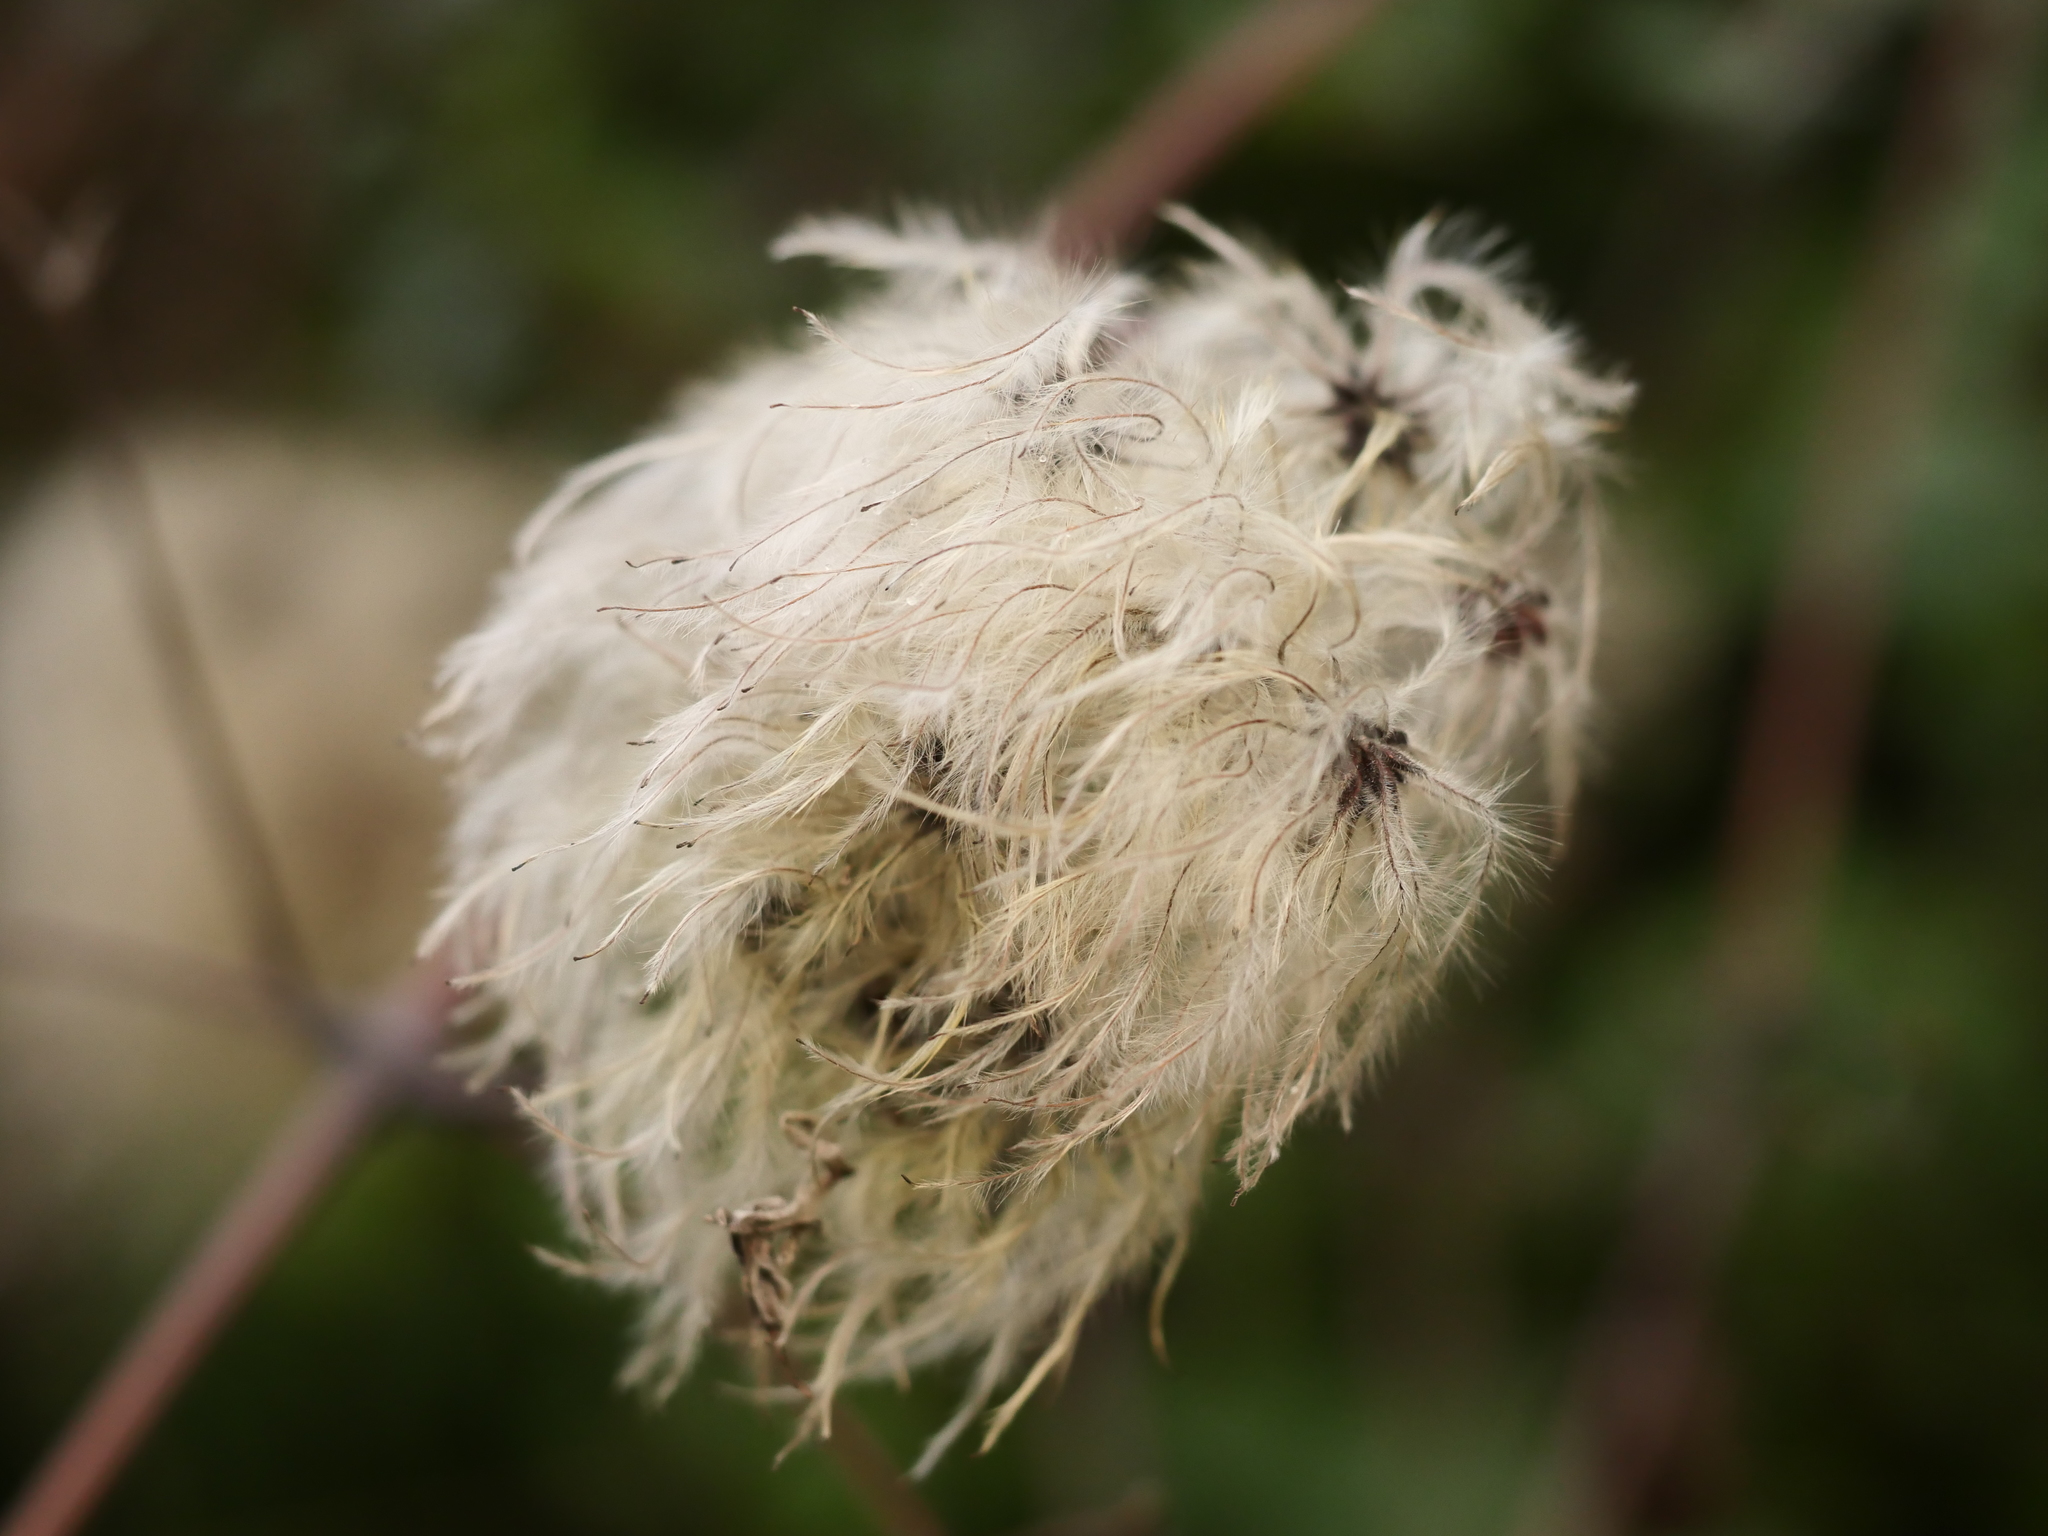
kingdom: Plantae
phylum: Tracheophyta
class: Magnoliopsida
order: Ranunculales
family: Ranunculaceae
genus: Clematis
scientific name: Clematis vitalba
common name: Evergreen clematis
